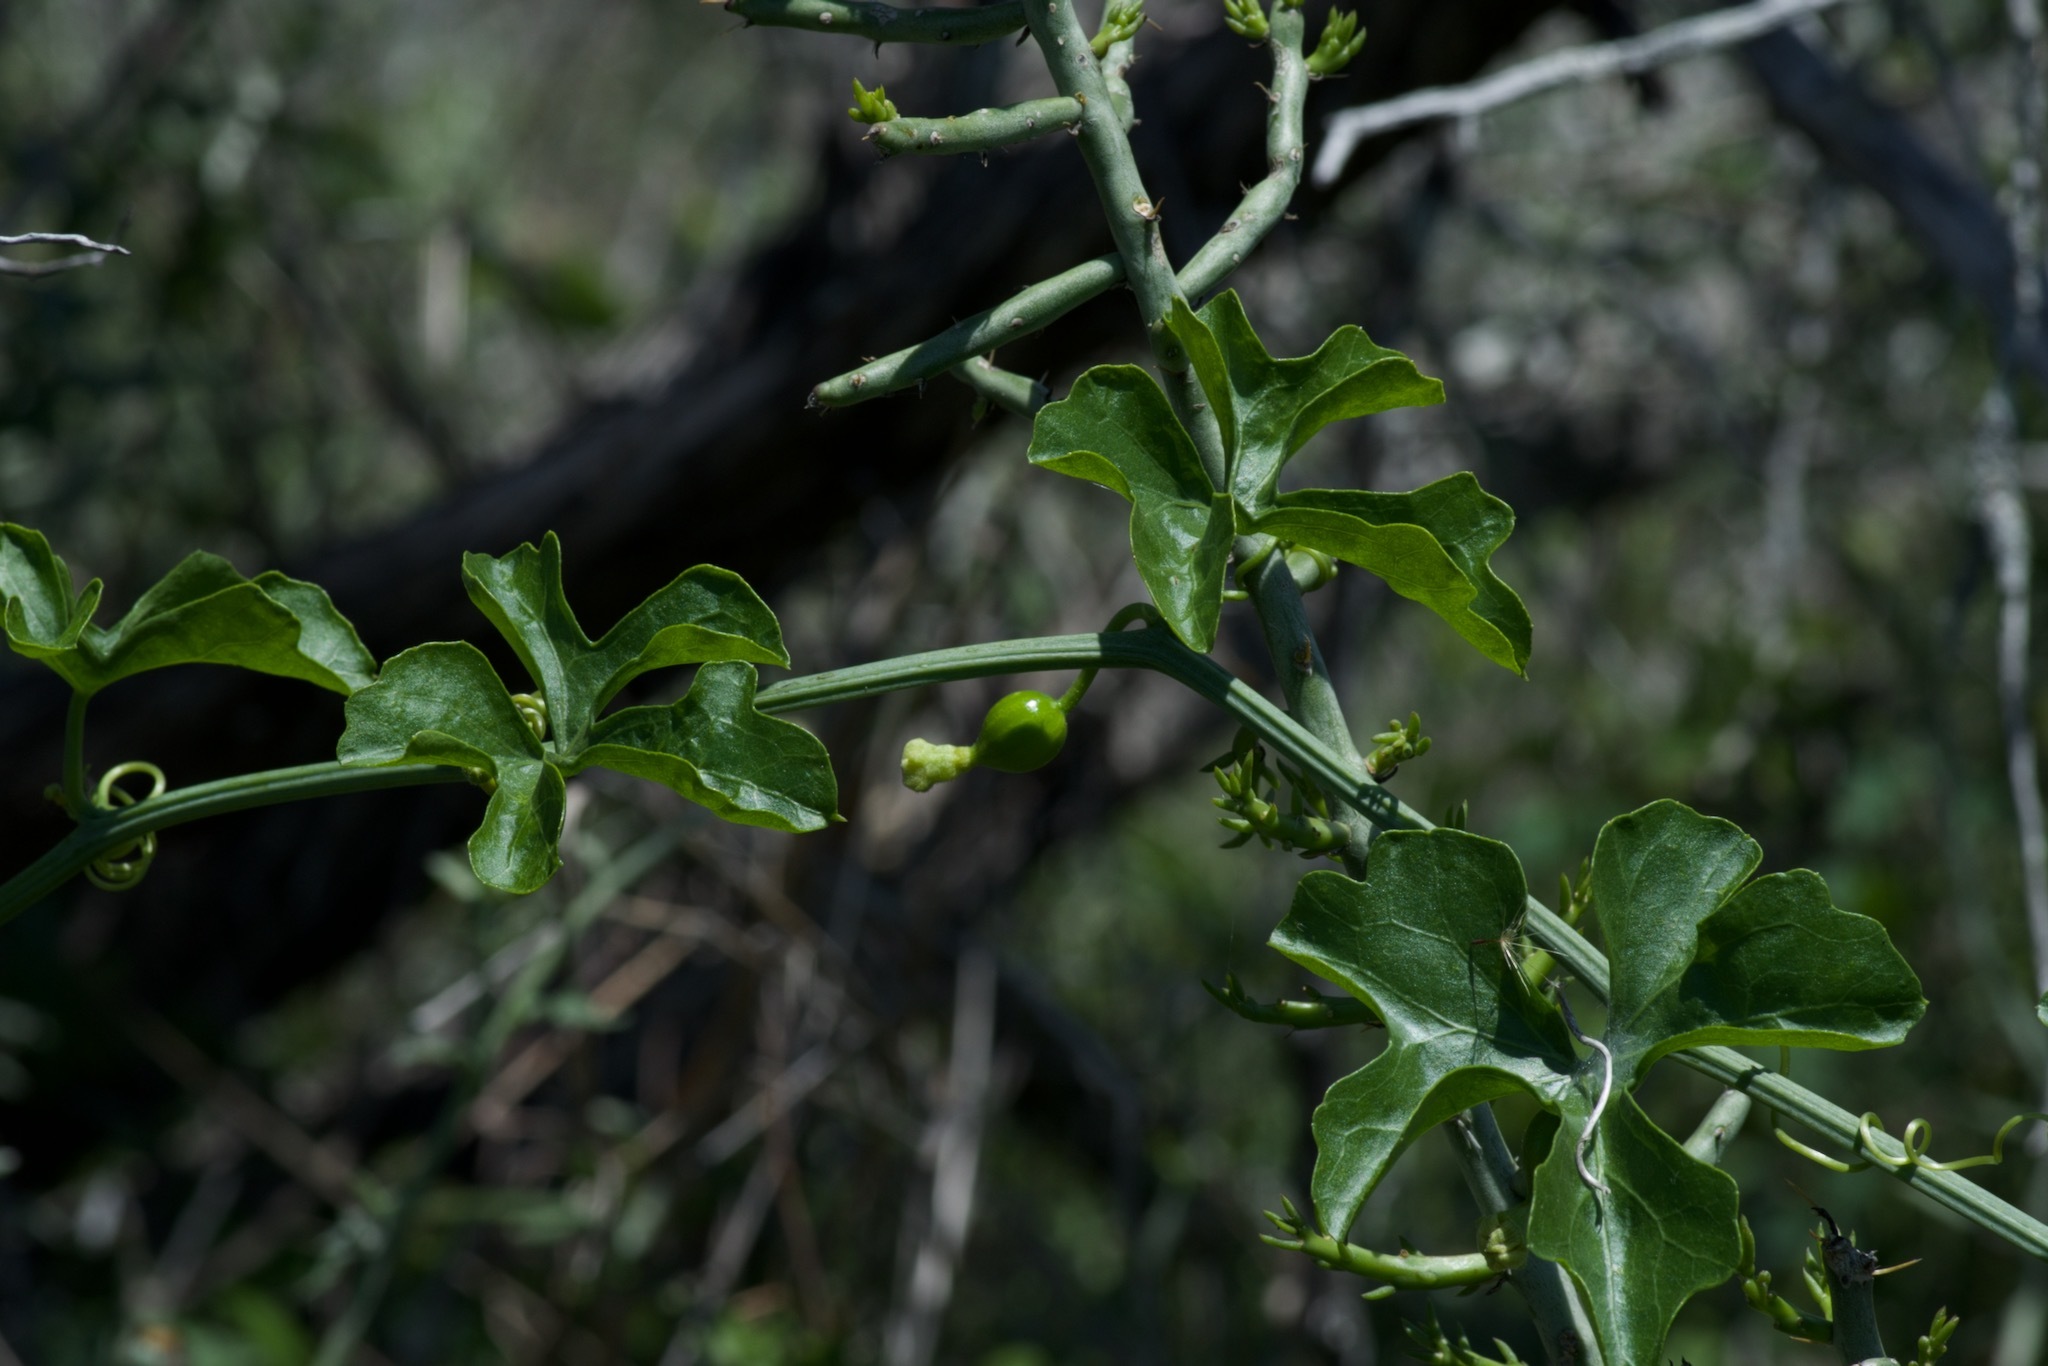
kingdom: Plantae
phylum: Tracheophyta
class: Magnoliopsida
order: Cucurbitales
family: Cucurbitaceae
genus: Ibervillea
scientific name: Ibervillea lindheimeri
